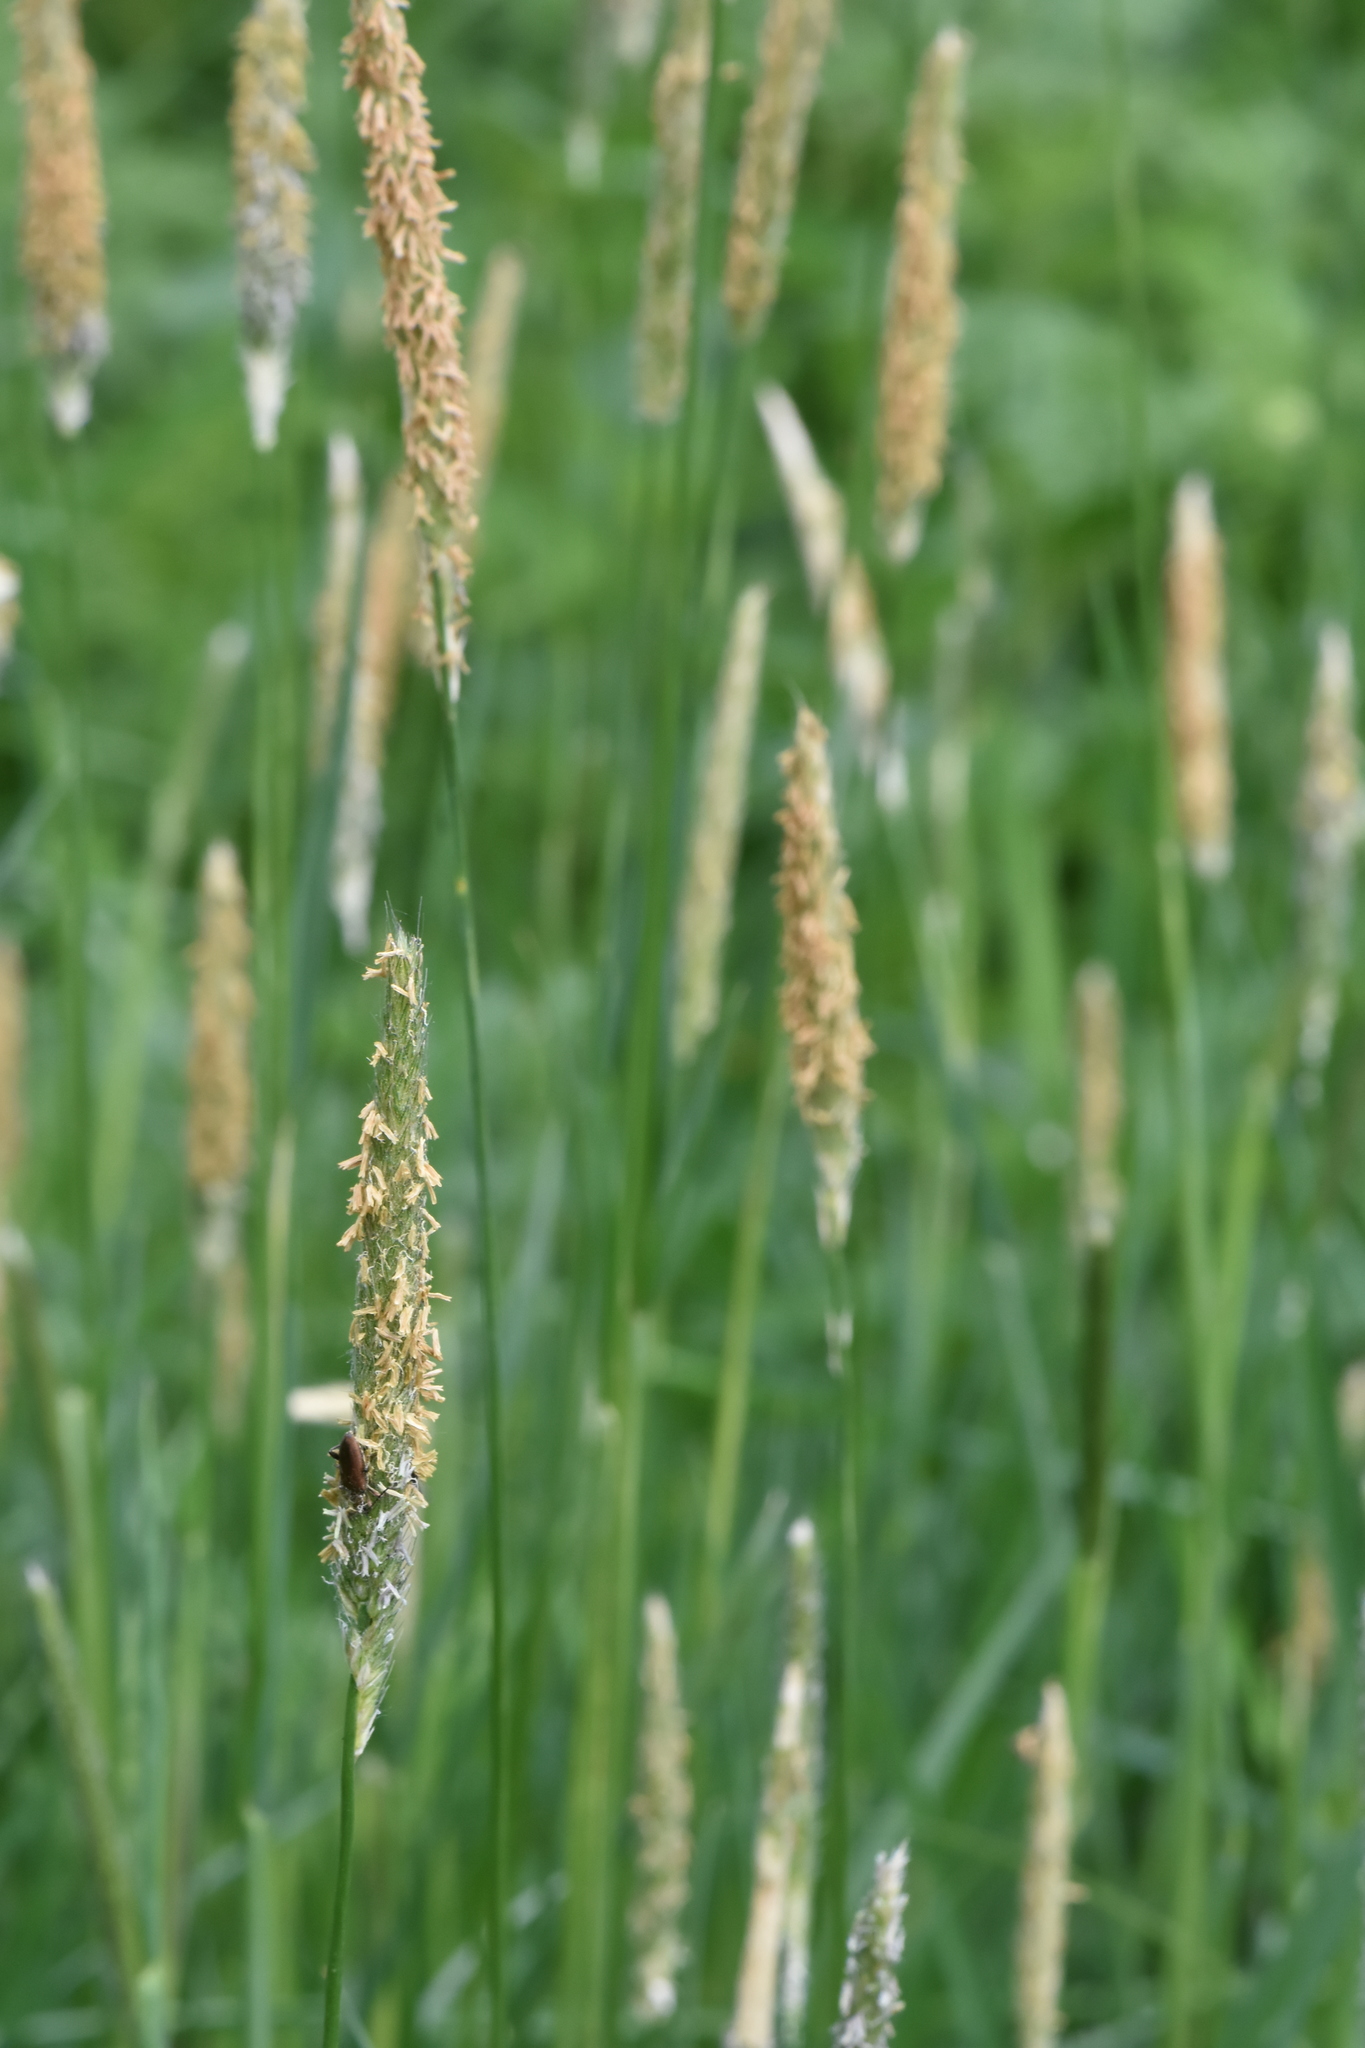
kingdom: Plantae
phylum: Tracheophyta
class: Liliopsida
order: Poales
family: Poaceae
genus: Alopecurus
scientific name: Alopecurus pratensis
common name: Meadow foxtail
